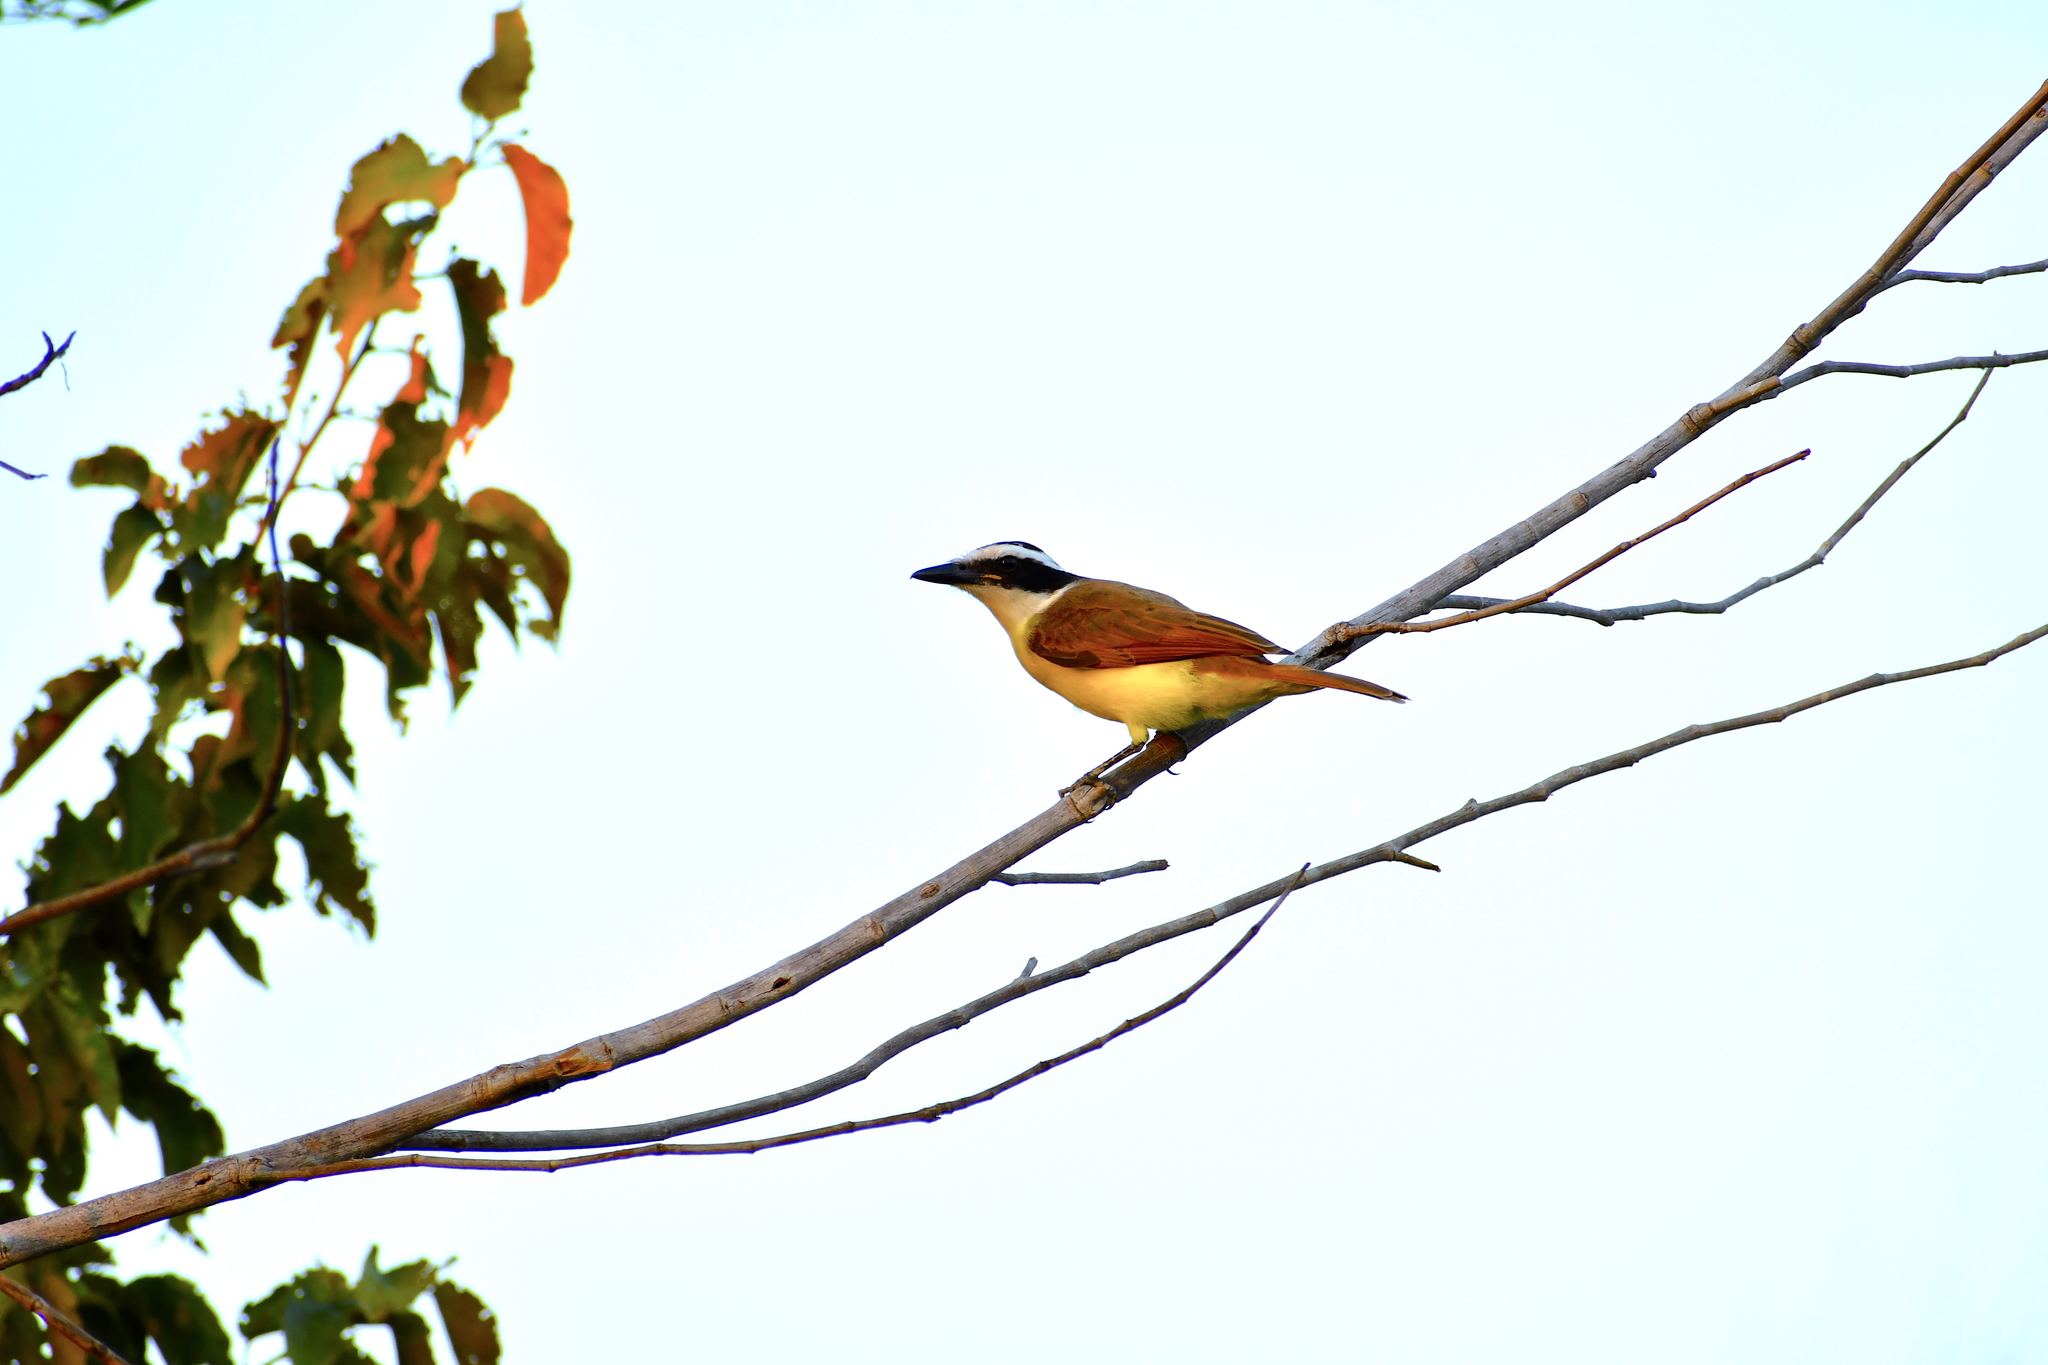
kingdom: Animalia
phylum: Chordata
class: Aves
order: Passeriformes
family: Tyrannidae
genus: Pitangus
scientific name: Pitangus sulphuratus
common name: Great kiskadee
